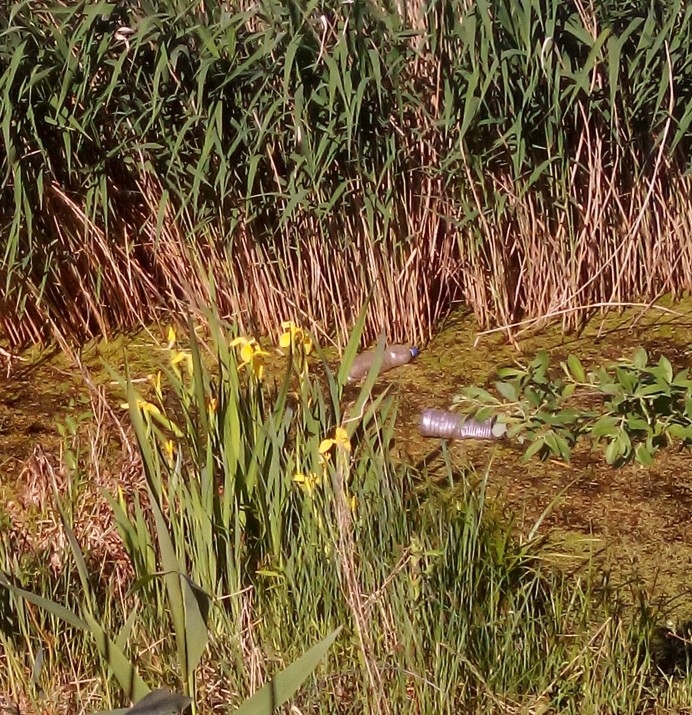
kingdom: Plantae
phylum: Tracheophyta
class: Liliopsida
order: Asparagales
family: Iridaceae
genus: Iris
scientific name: Iris pseudacorus
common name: Yellow flag
